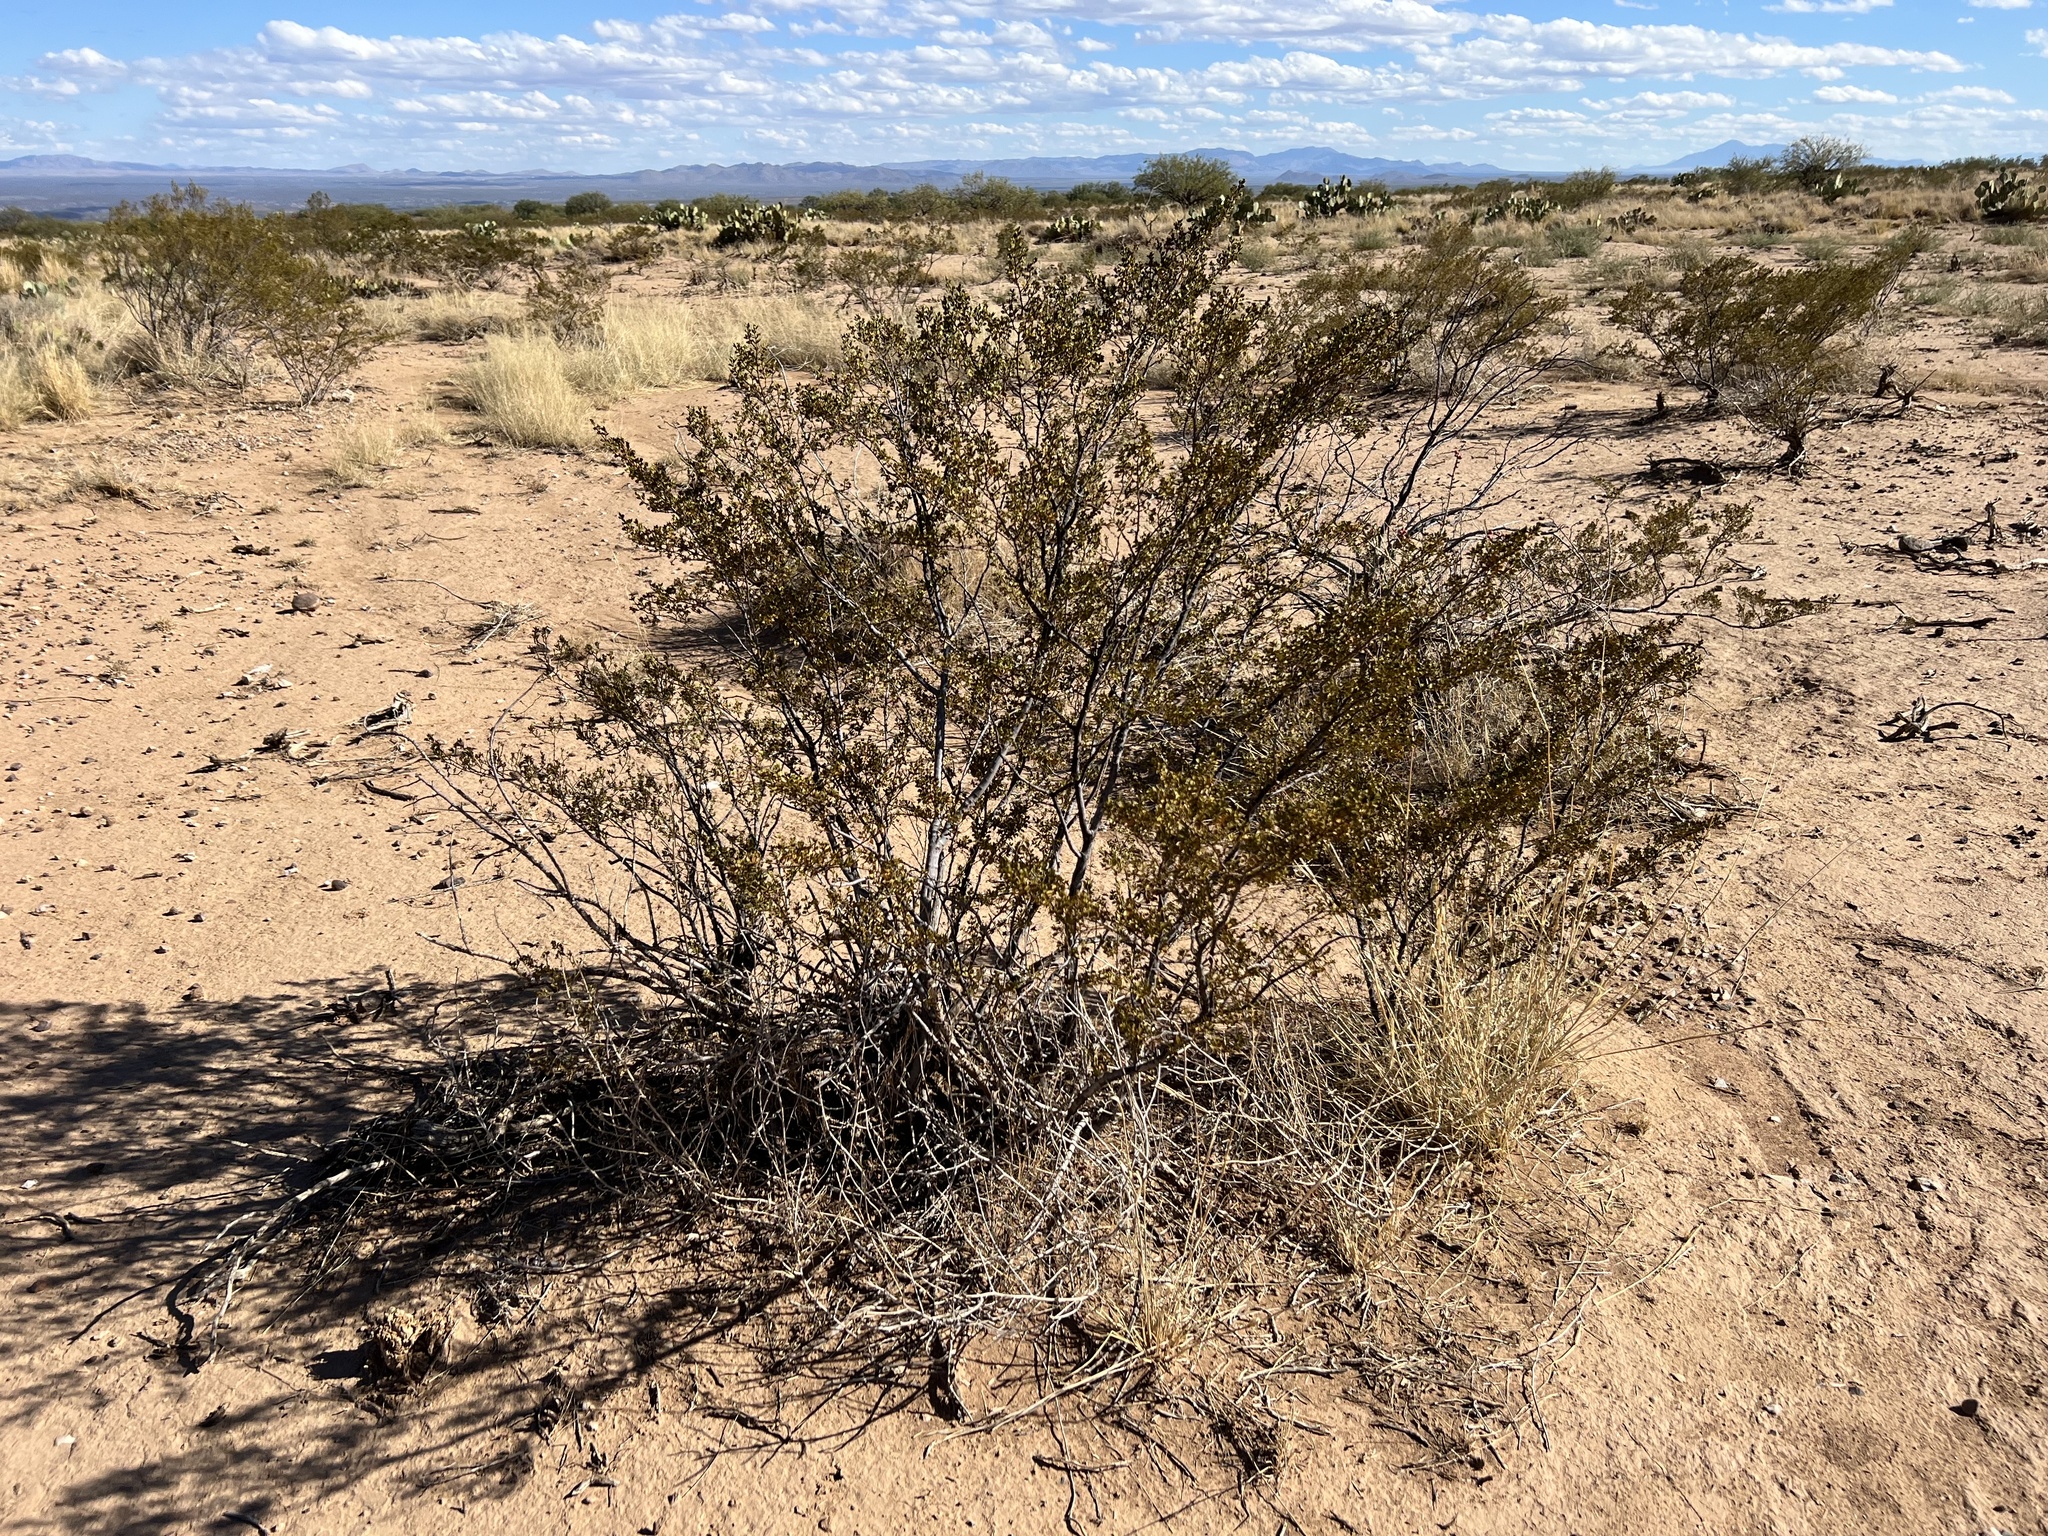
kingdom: Plantae
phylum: Tracheophyta
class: Magnoliopsida
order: Zygophyllales
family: Zygophyllaceae
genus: Larrea
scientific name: Larrea tridentata
